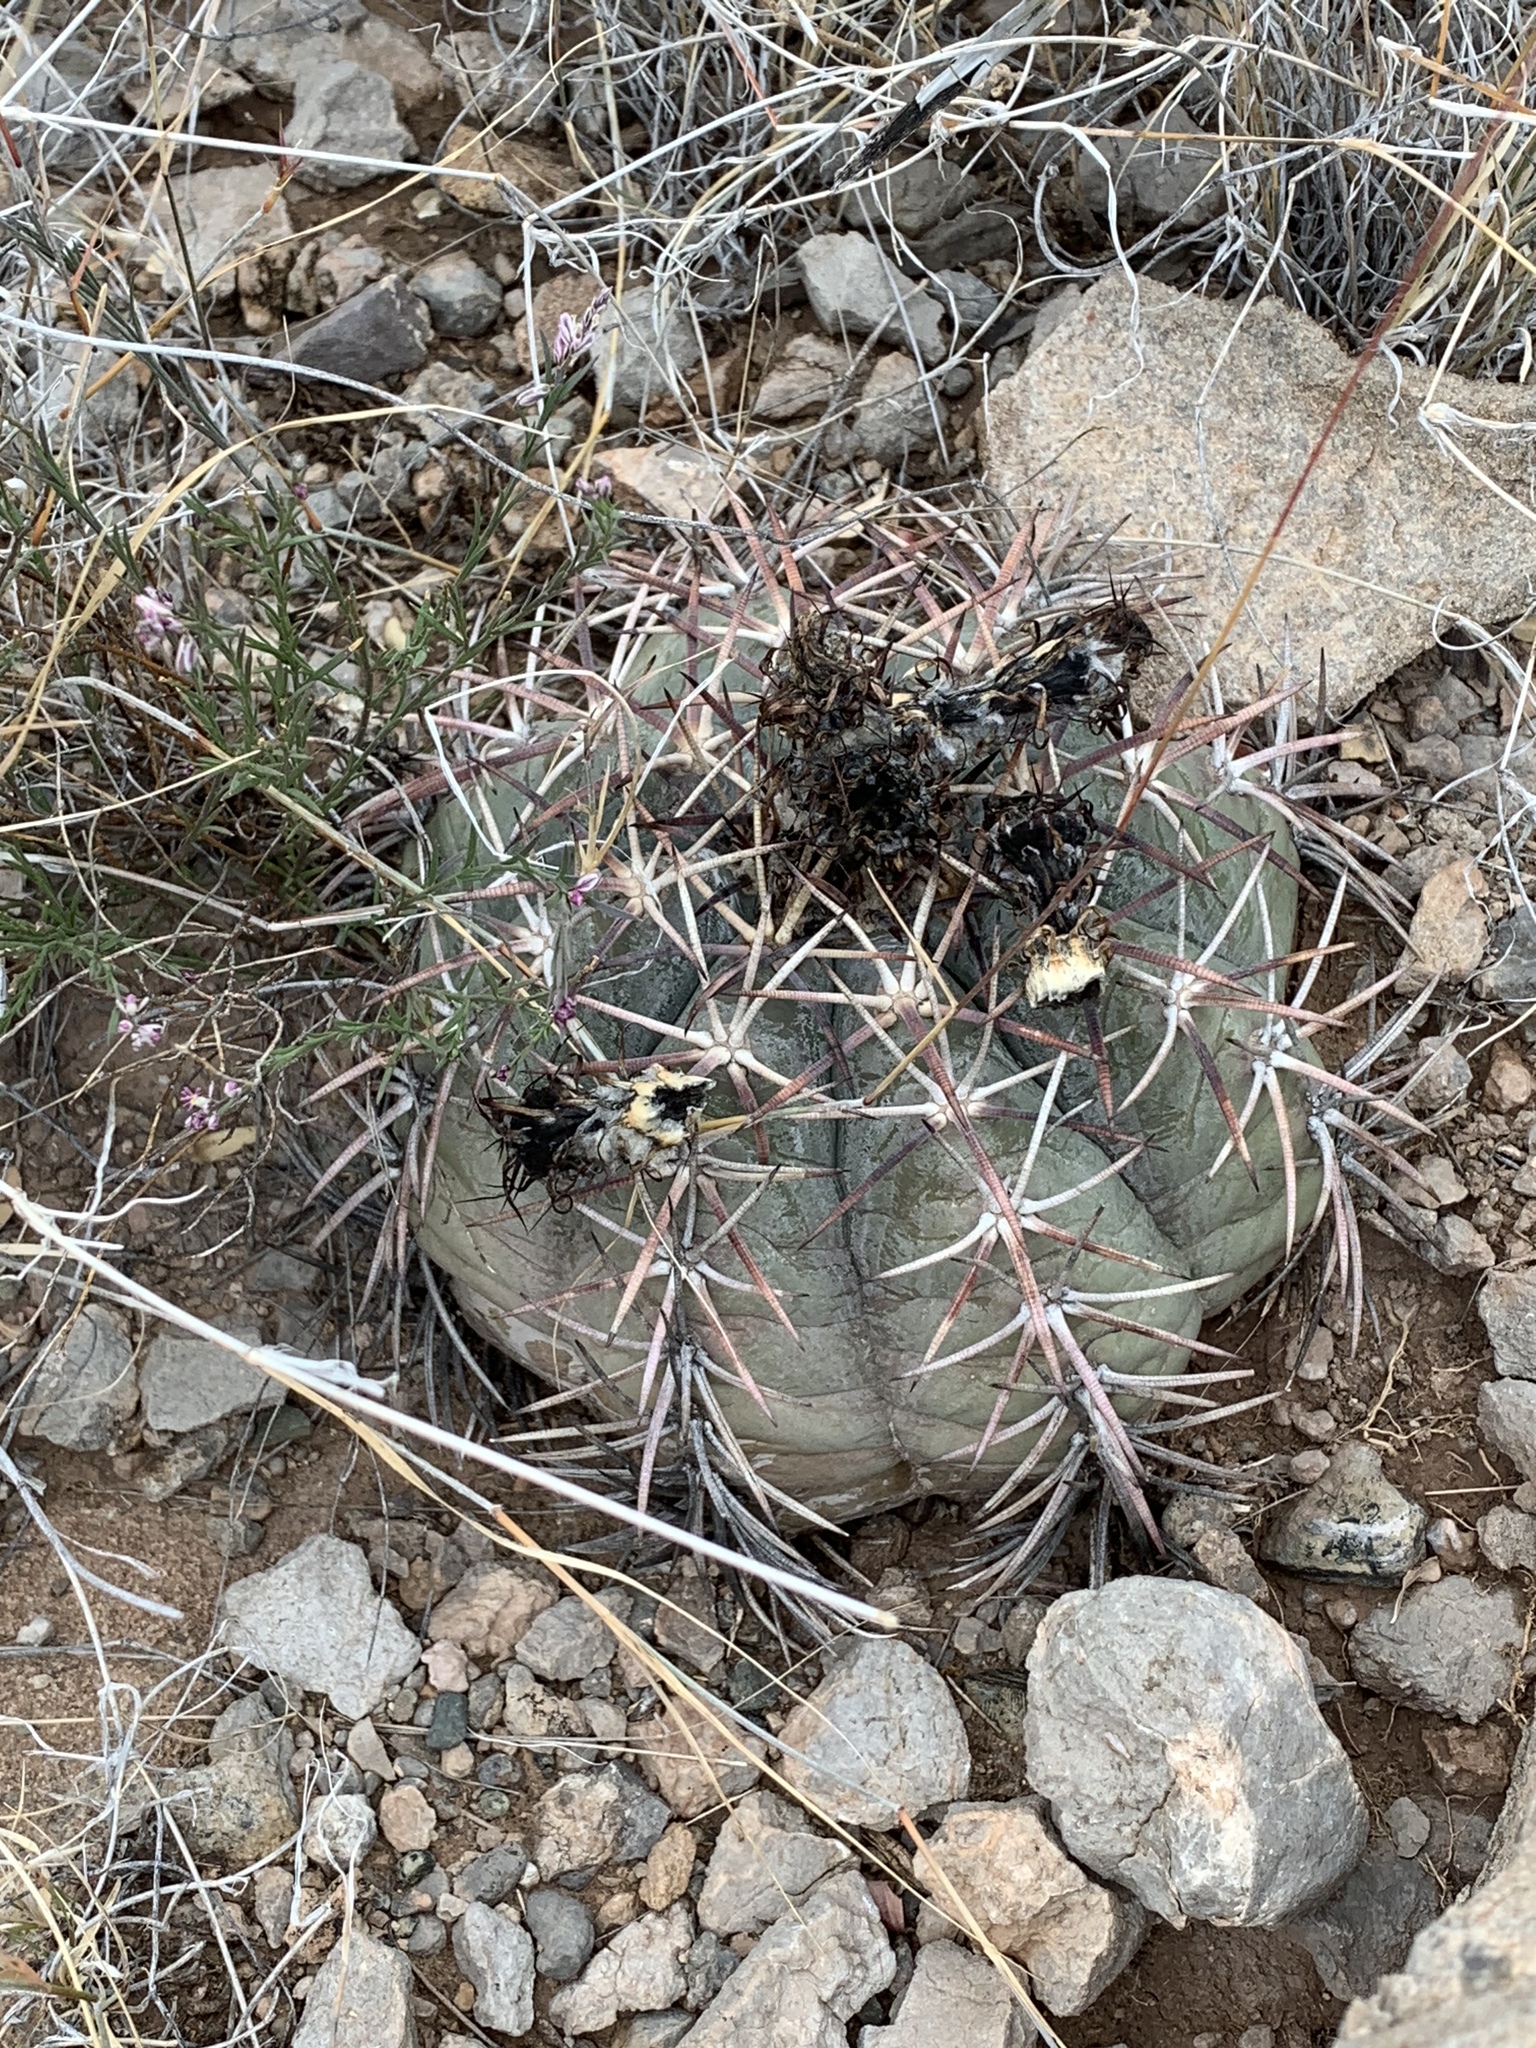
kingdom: Plantae
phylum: Tracheophyta
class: Magnoliopsida
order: Caryophyllales
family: Cactaceae
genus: Echinocactus
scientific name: Echinocactus horizonthalonius
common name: Devilshead
